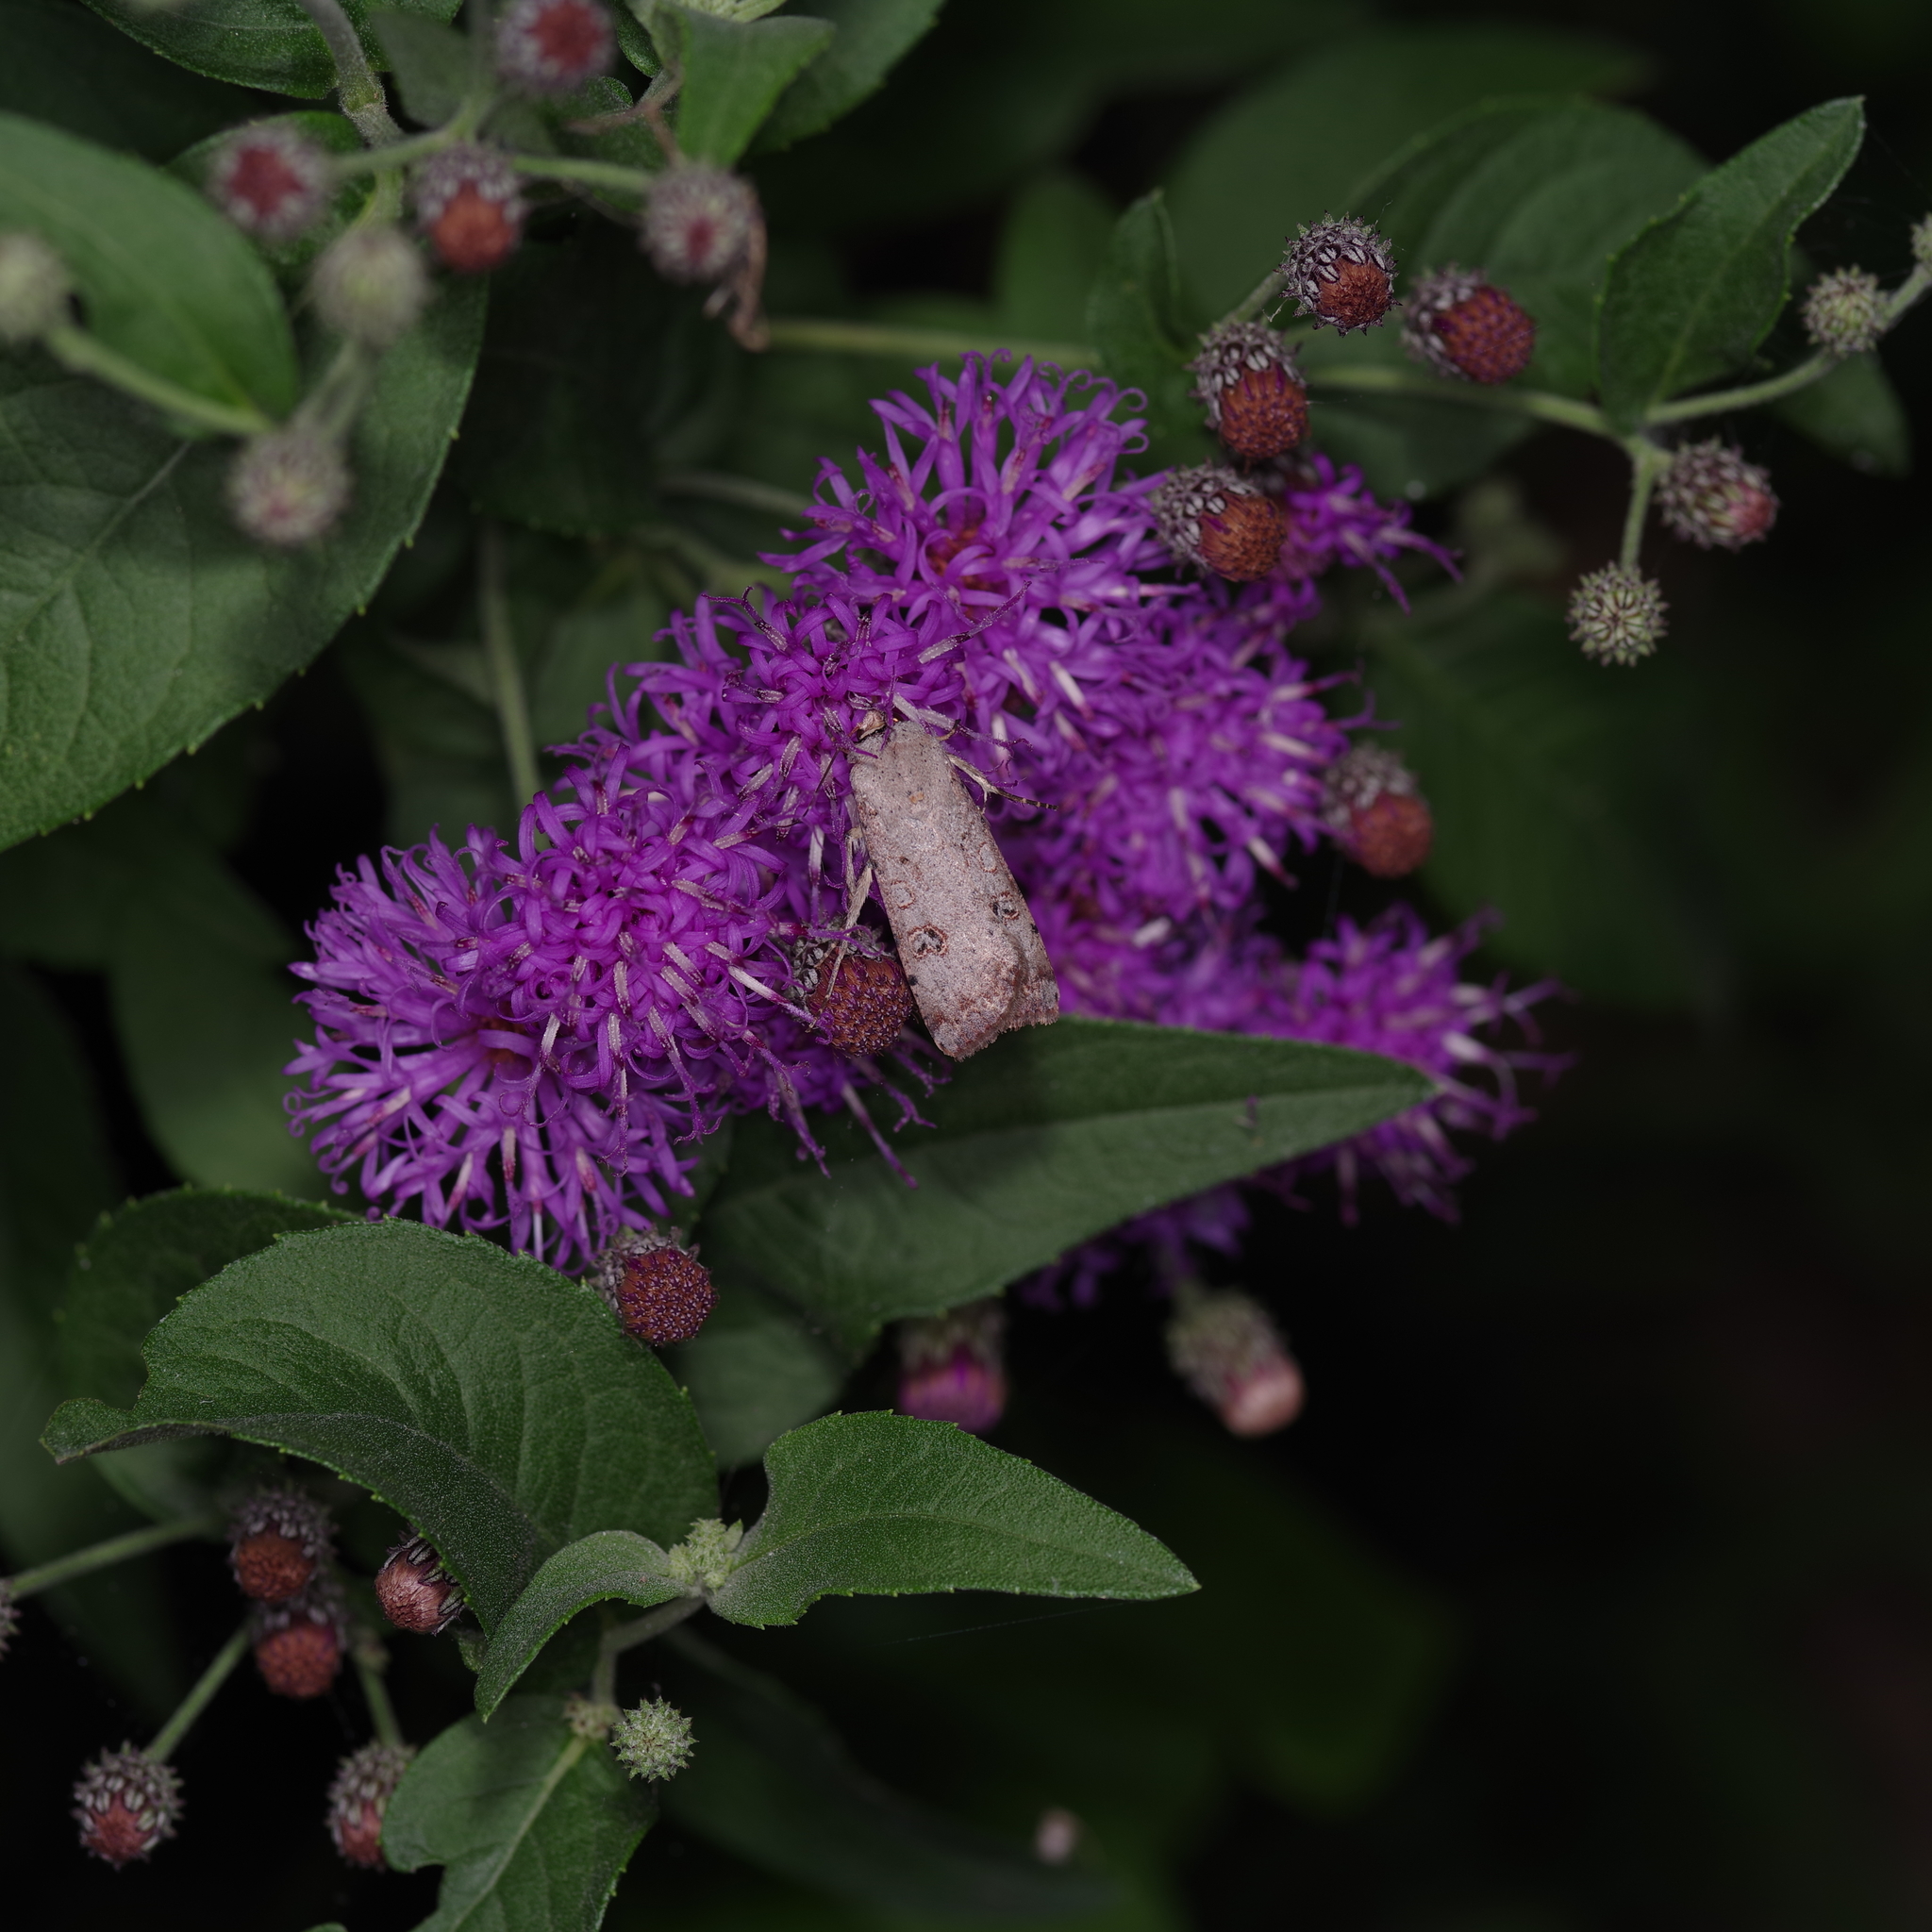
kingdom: Plantae
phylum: Tracheophyta
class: Magnoliopsida
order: Asterales
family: Asteraceae
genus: Vernonia
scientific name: Vernonia baldwinii
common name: Western ironweed
